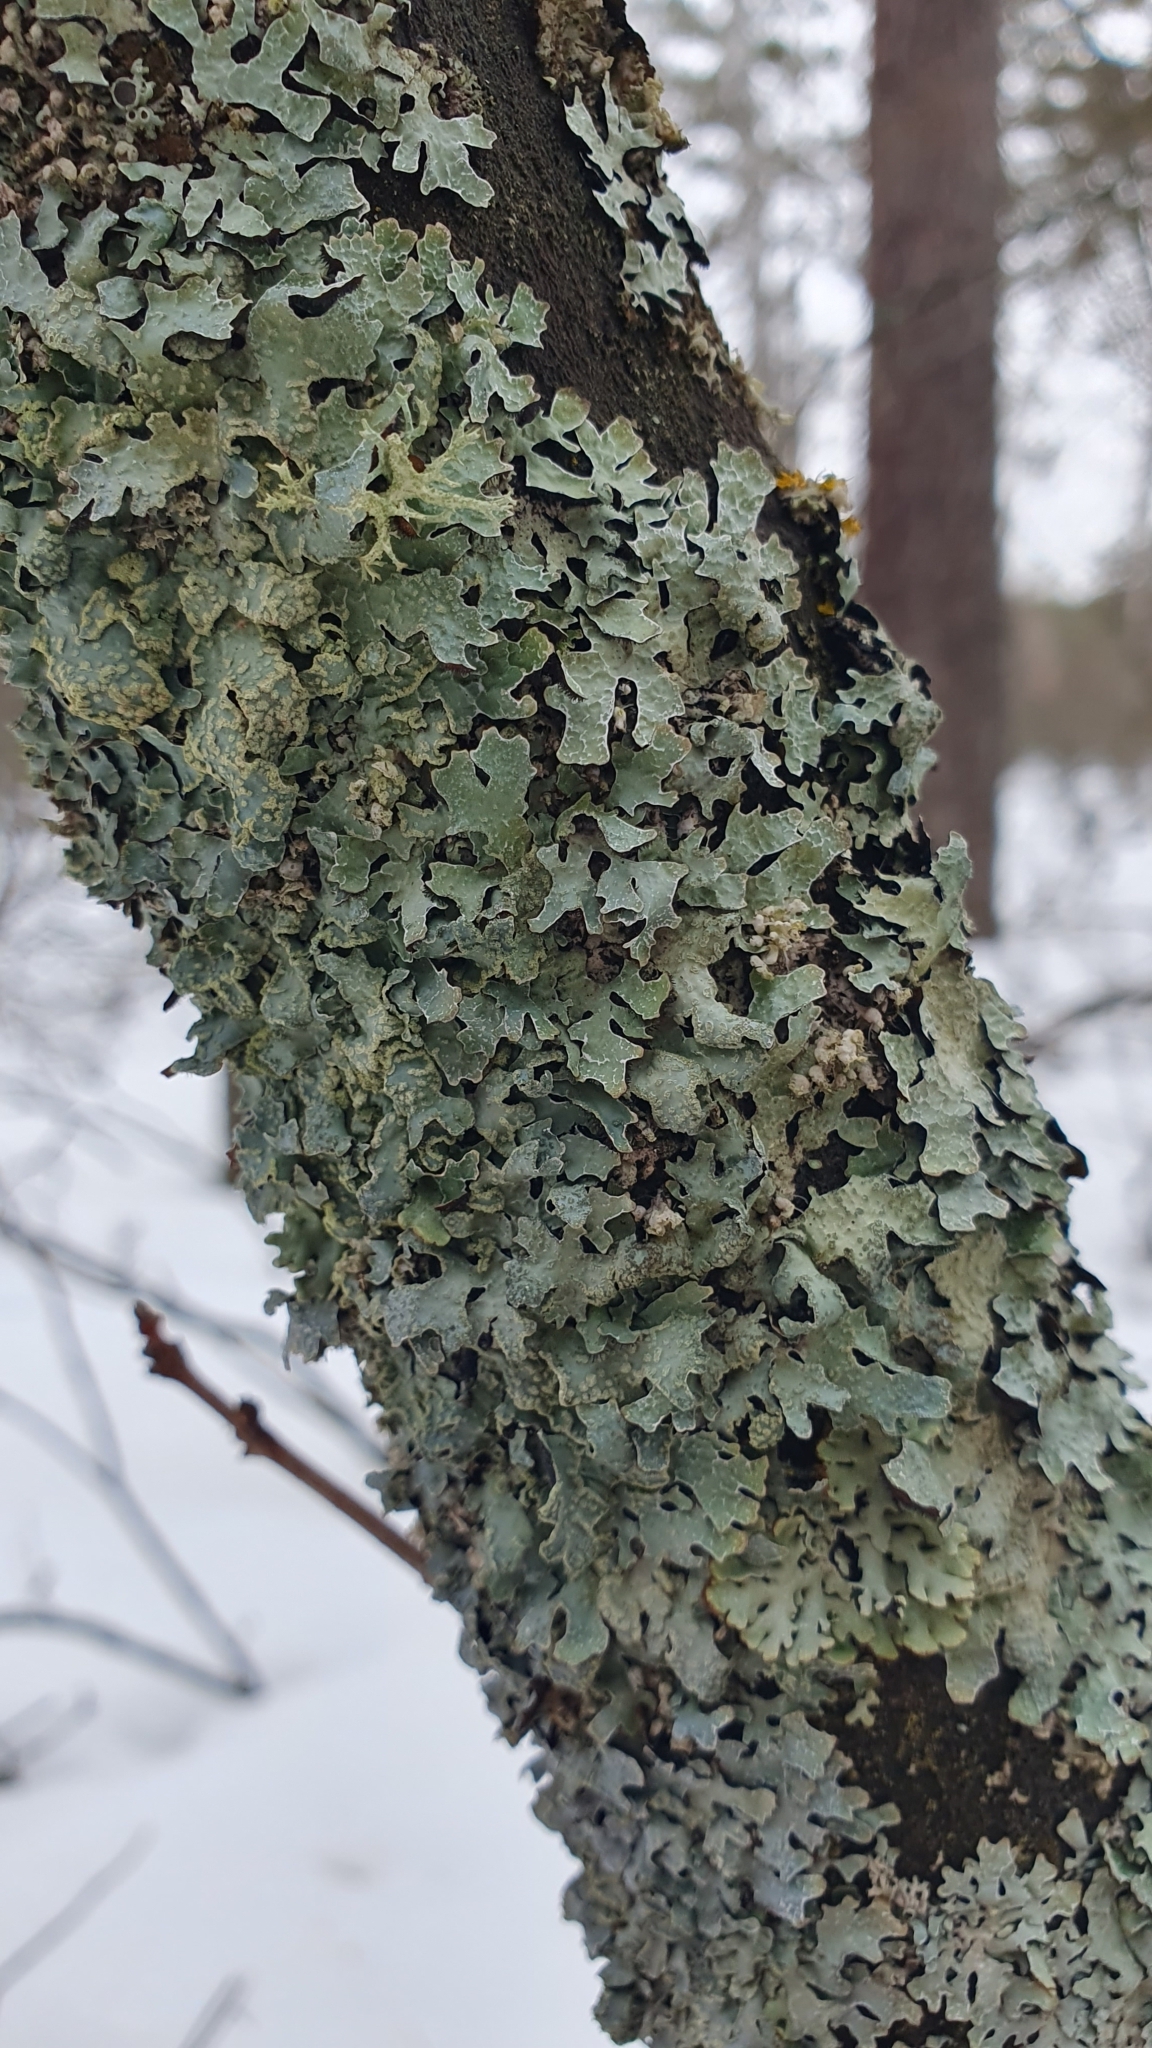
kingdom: Fungi
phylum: Ascomycota
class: Lecanoromycetes
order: Lecanorales
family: Parmeliaceae
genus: Parmelia
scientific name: Parmelia sulcata
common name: Netted shield lichen
